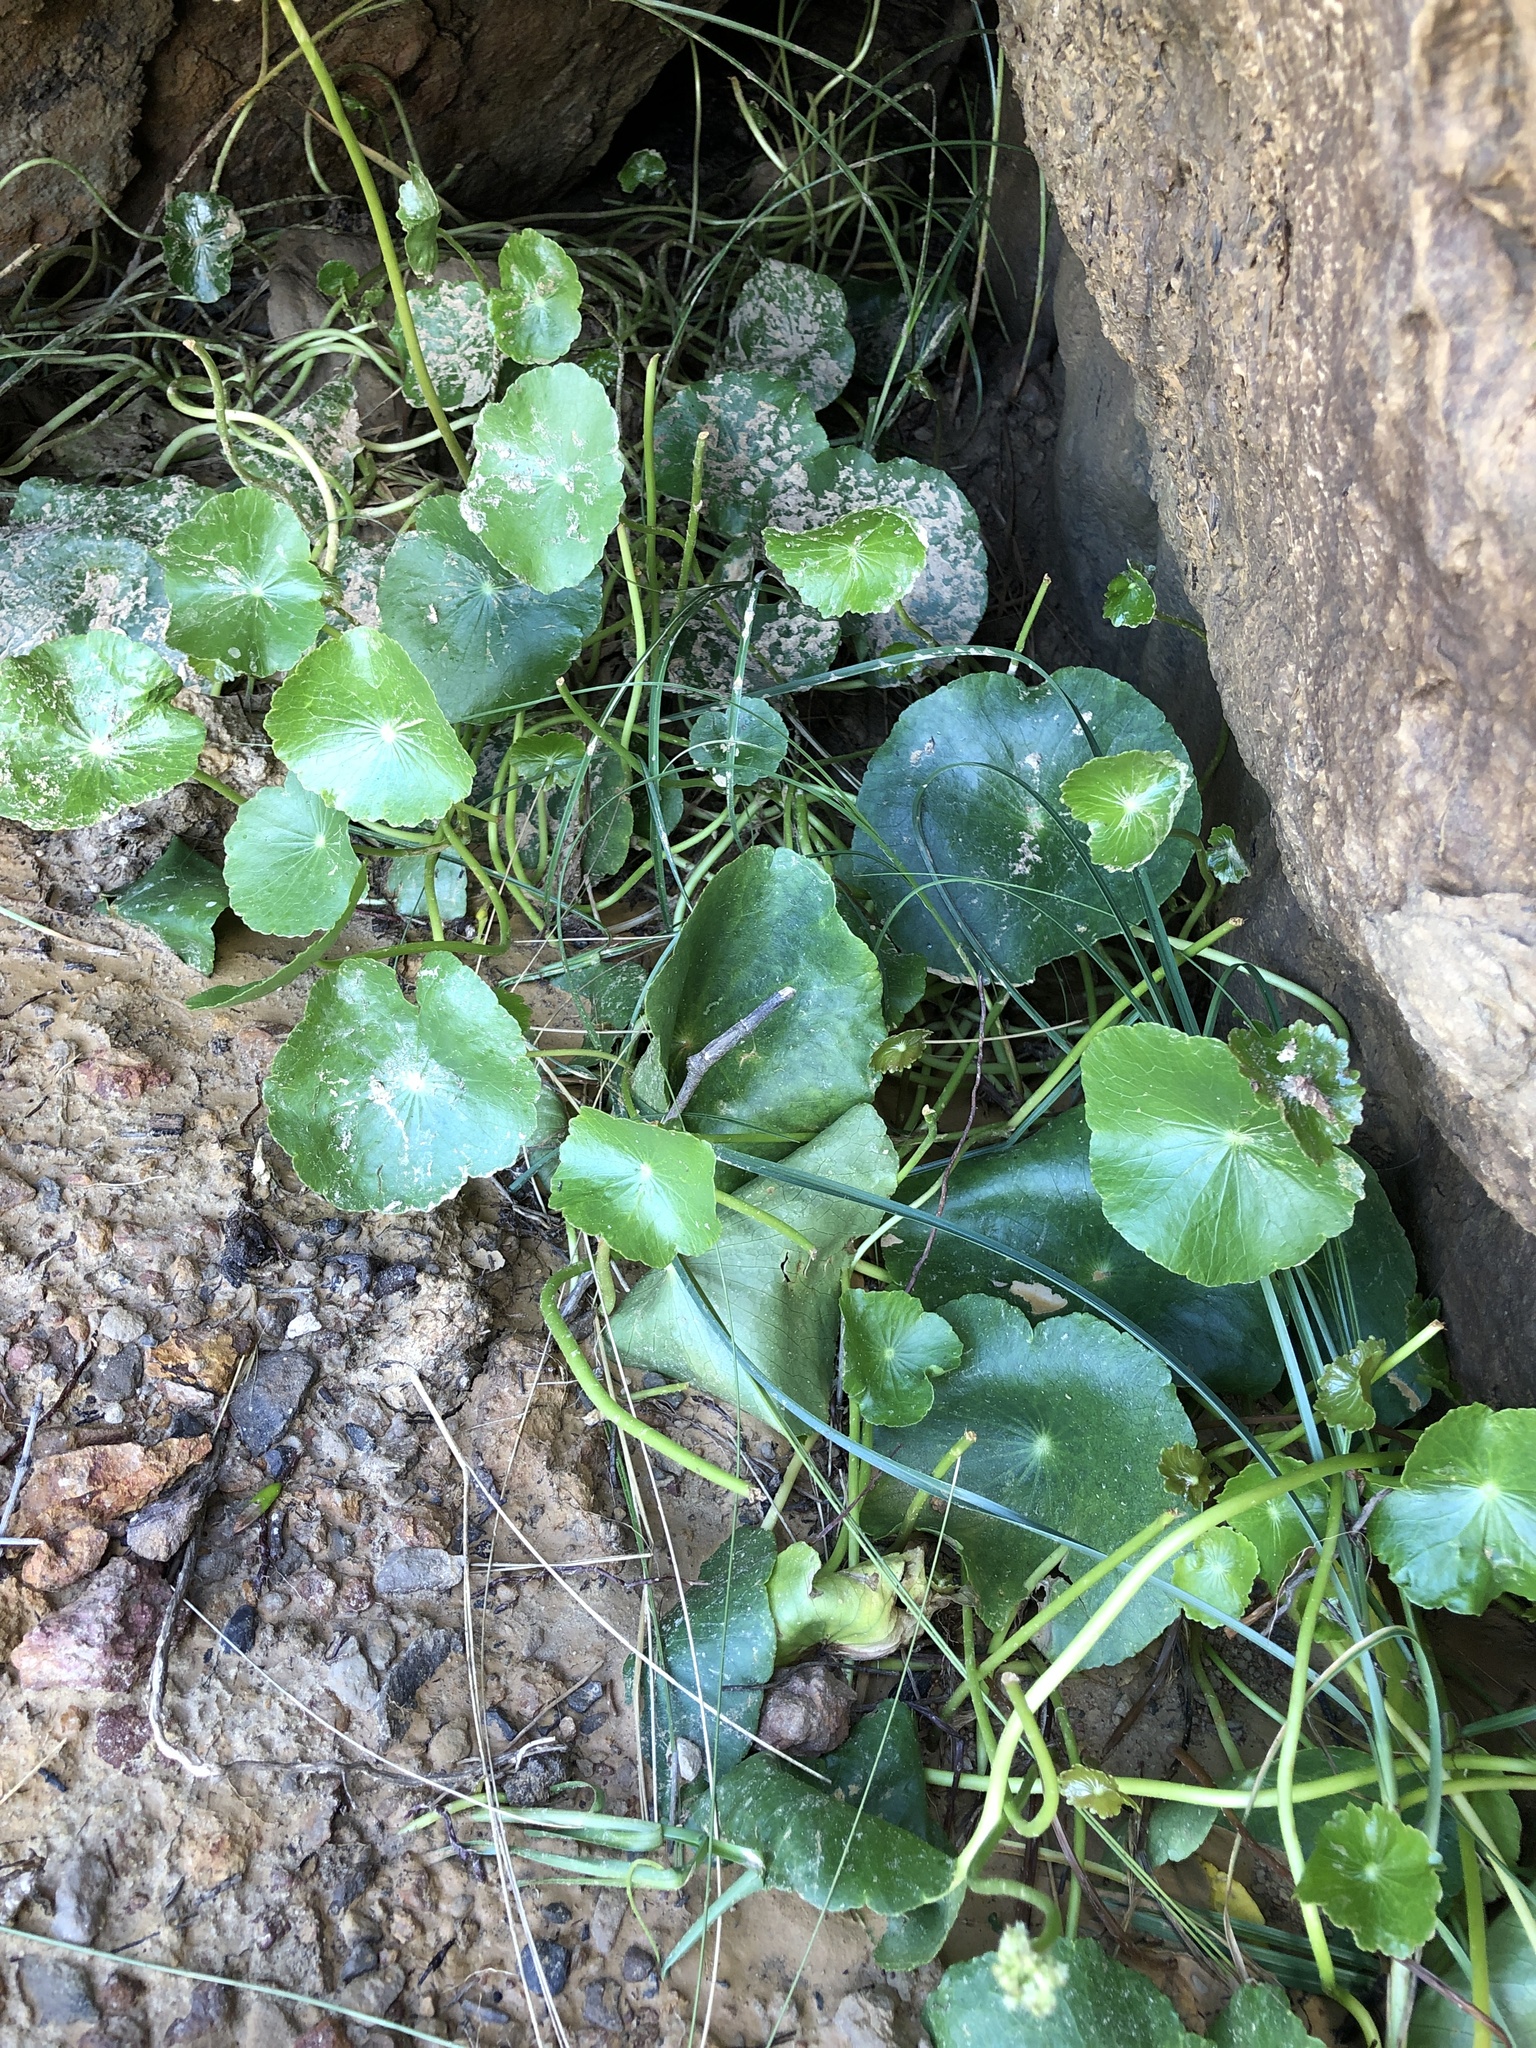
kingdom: Plantae
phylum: Tracheophyta
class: Magnoliopsida
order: Apiales
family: Araliaceae
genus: Hydrocotyle
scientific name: Hydrocotyle bonariensis
